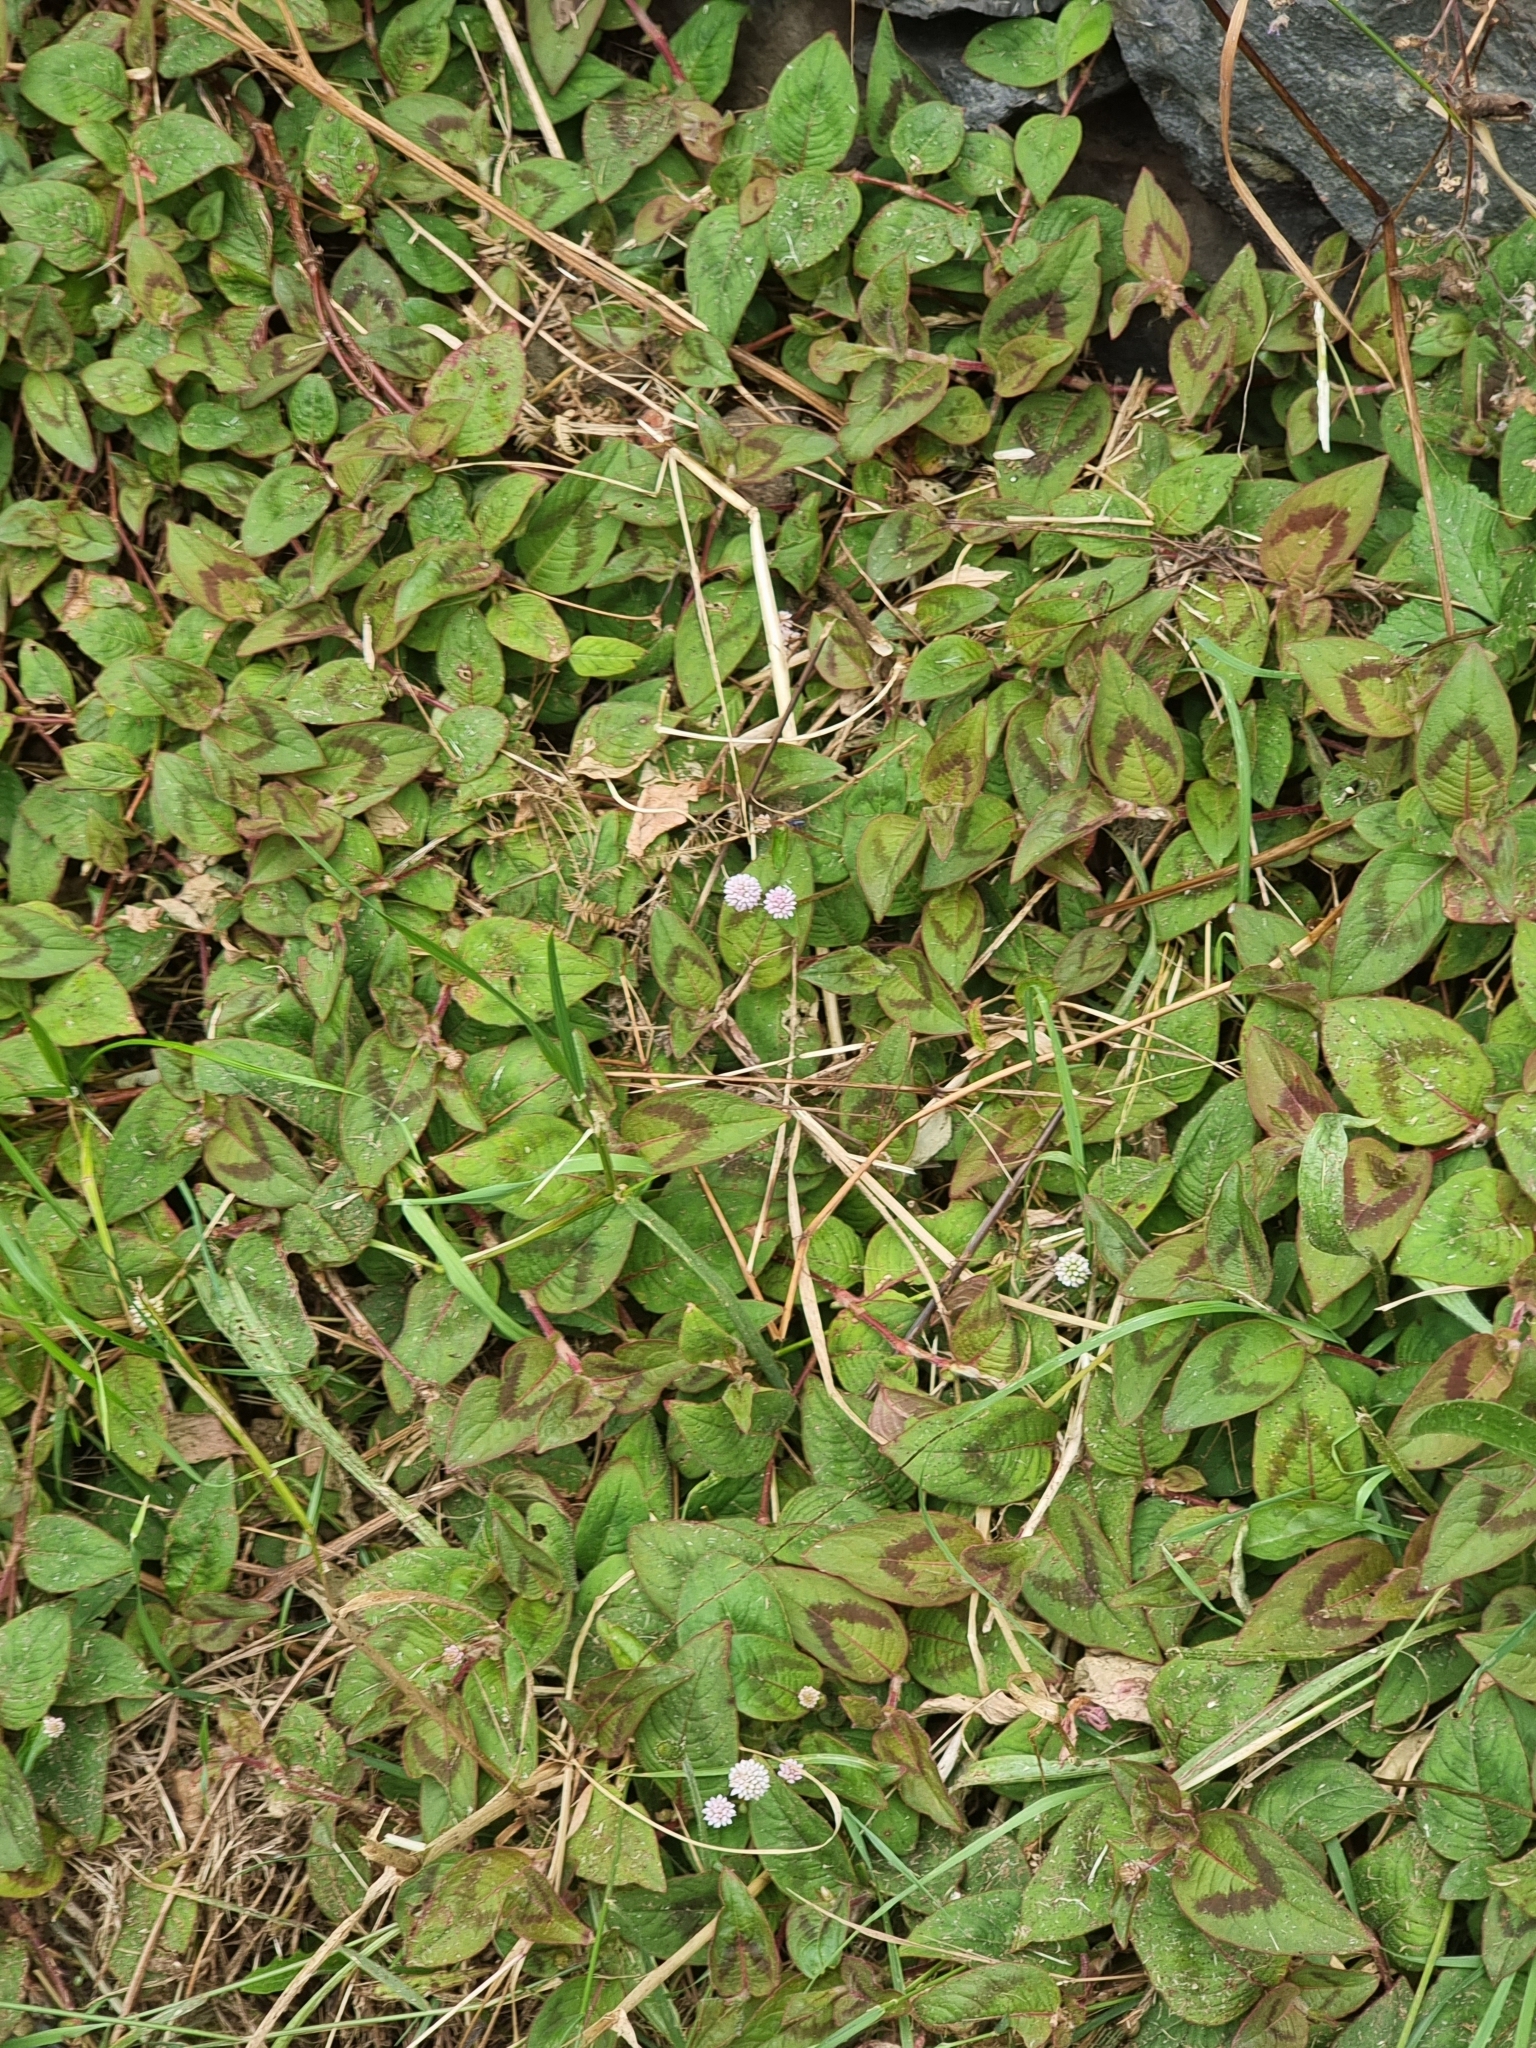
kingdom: Plantae
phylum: Tracheophyta
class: Magnoliopsida
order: Caryophyllales
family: Polygonaceae
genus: Persicaria
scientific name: Persicaria capitata
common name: Pinkhead smartweed
